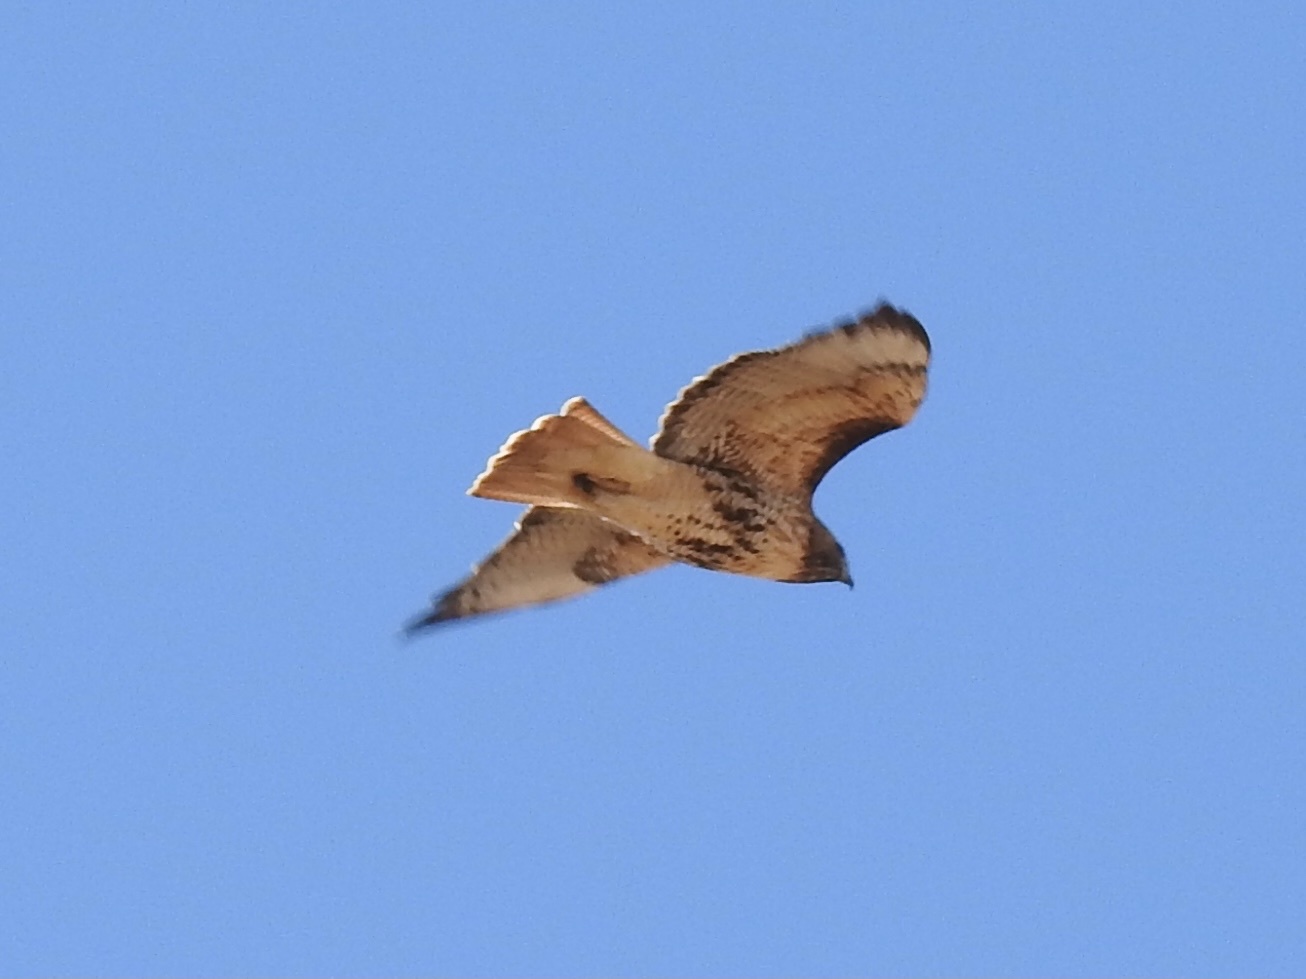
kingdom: Animalia
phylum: Chordata
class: Aves
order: Accipitriformes
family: Accipitridae
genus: Buteo
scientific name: Buteo jamaicensis
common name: Red-tailed hawk
